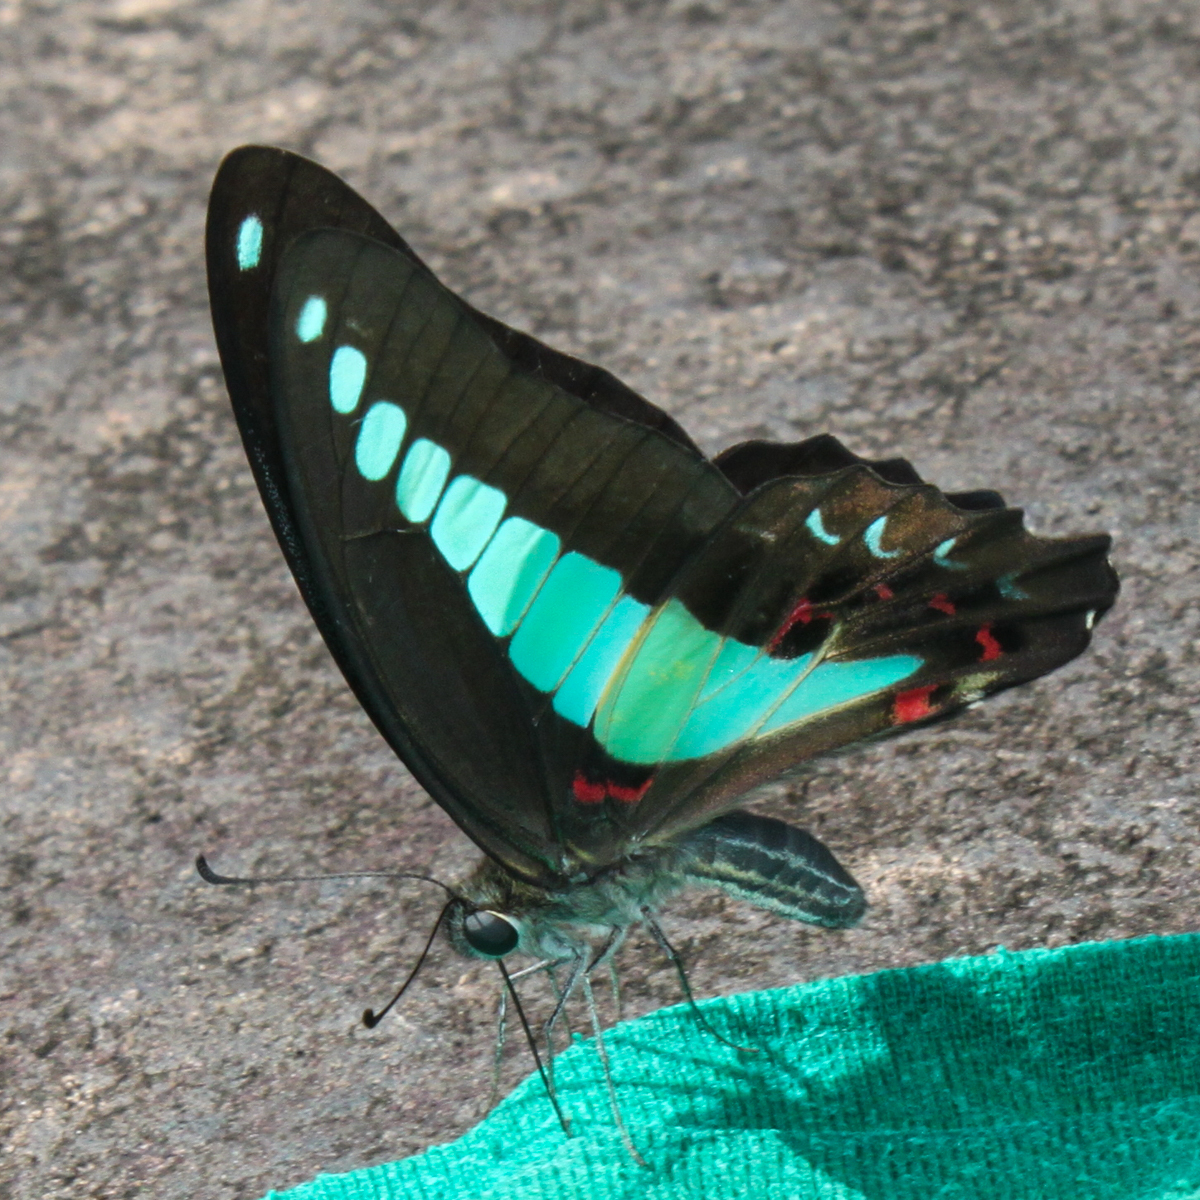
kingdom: Fungi
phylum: Ascomycota
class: Sordariomycetes
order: Microascales
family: Microascaceae
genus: Graphium
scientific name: Graphium sarpedon
